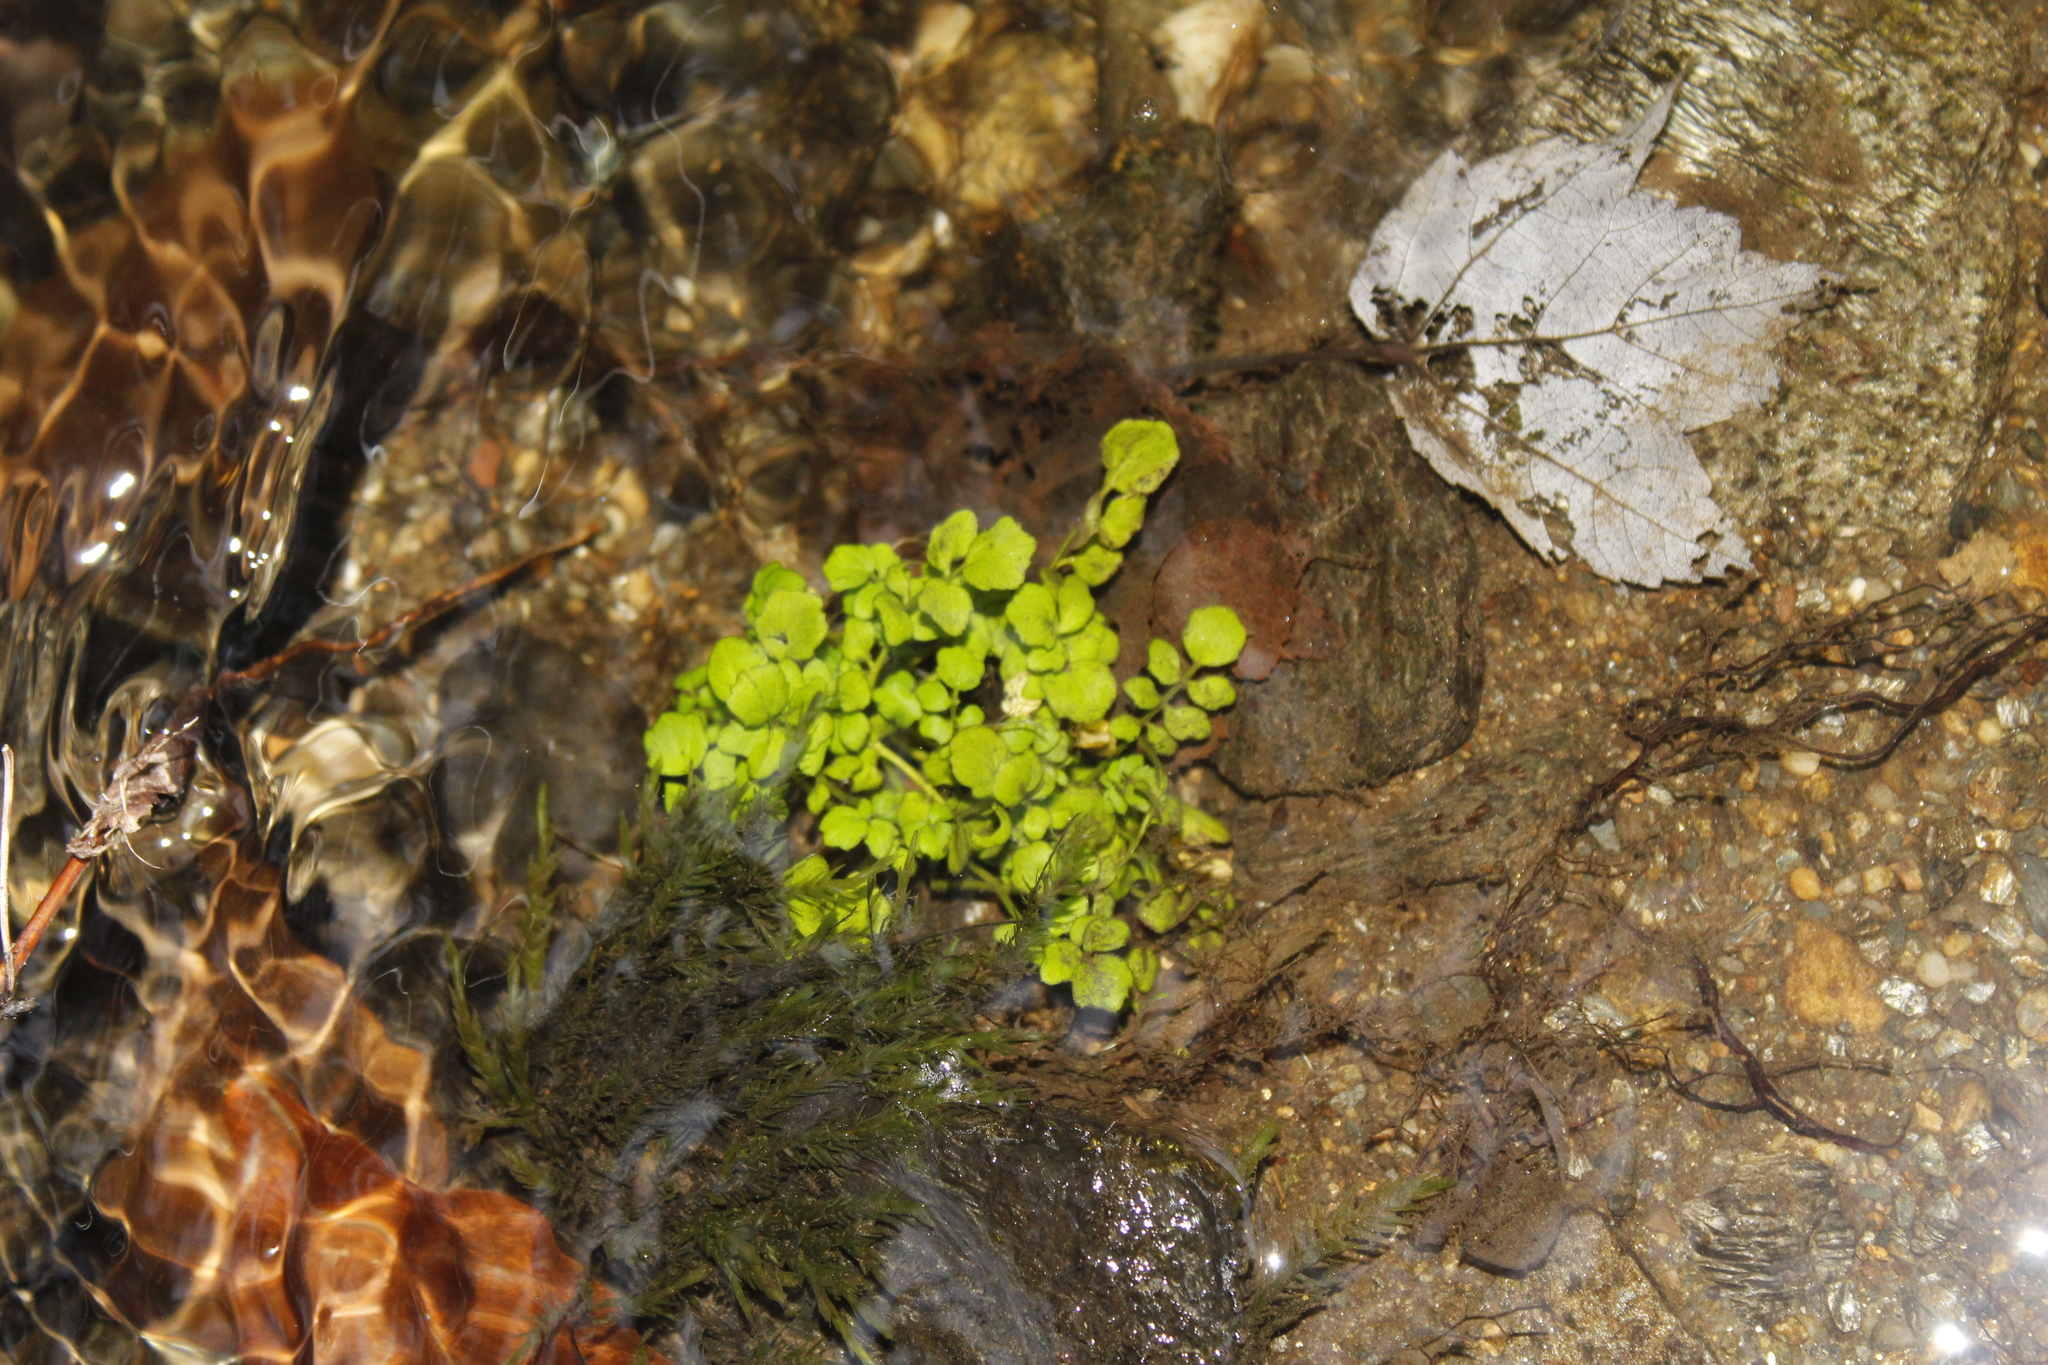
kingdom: Plantae
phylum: Tracheophyta
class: Magnoliopsida
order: Brassicales
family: Brassicaceae
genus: Cardamine
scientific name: Cardamine pensylvanica
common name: Pennsylvania bittercress
